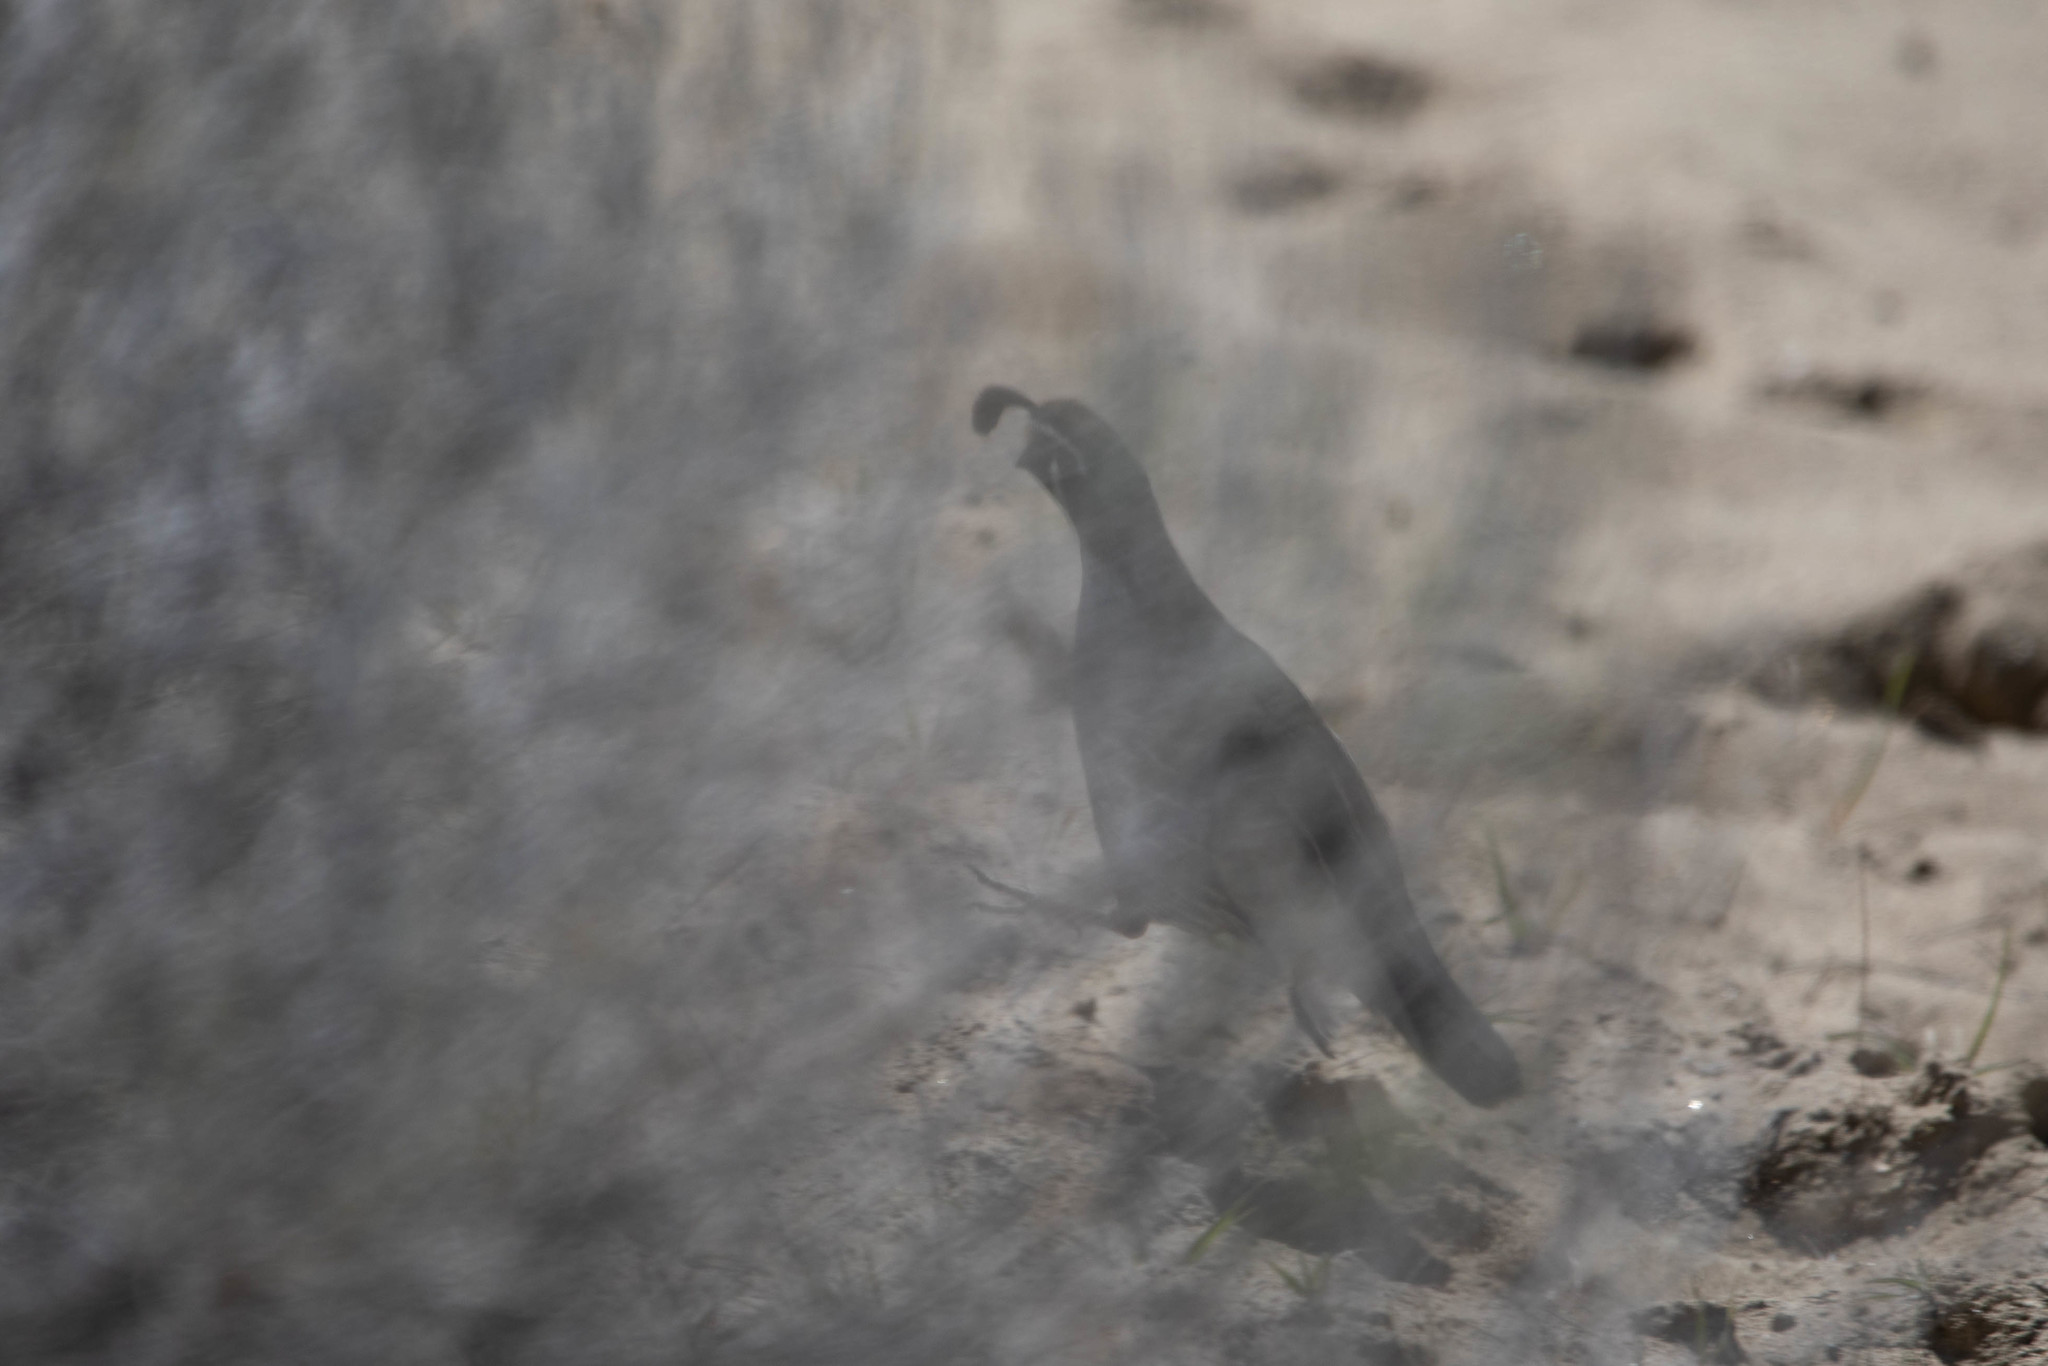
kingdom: Animalia
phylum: Chordata
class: Aves
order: Galliformes
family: Odontophoridae
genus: Callipepla
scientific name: Callipepla californica
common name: California quail
